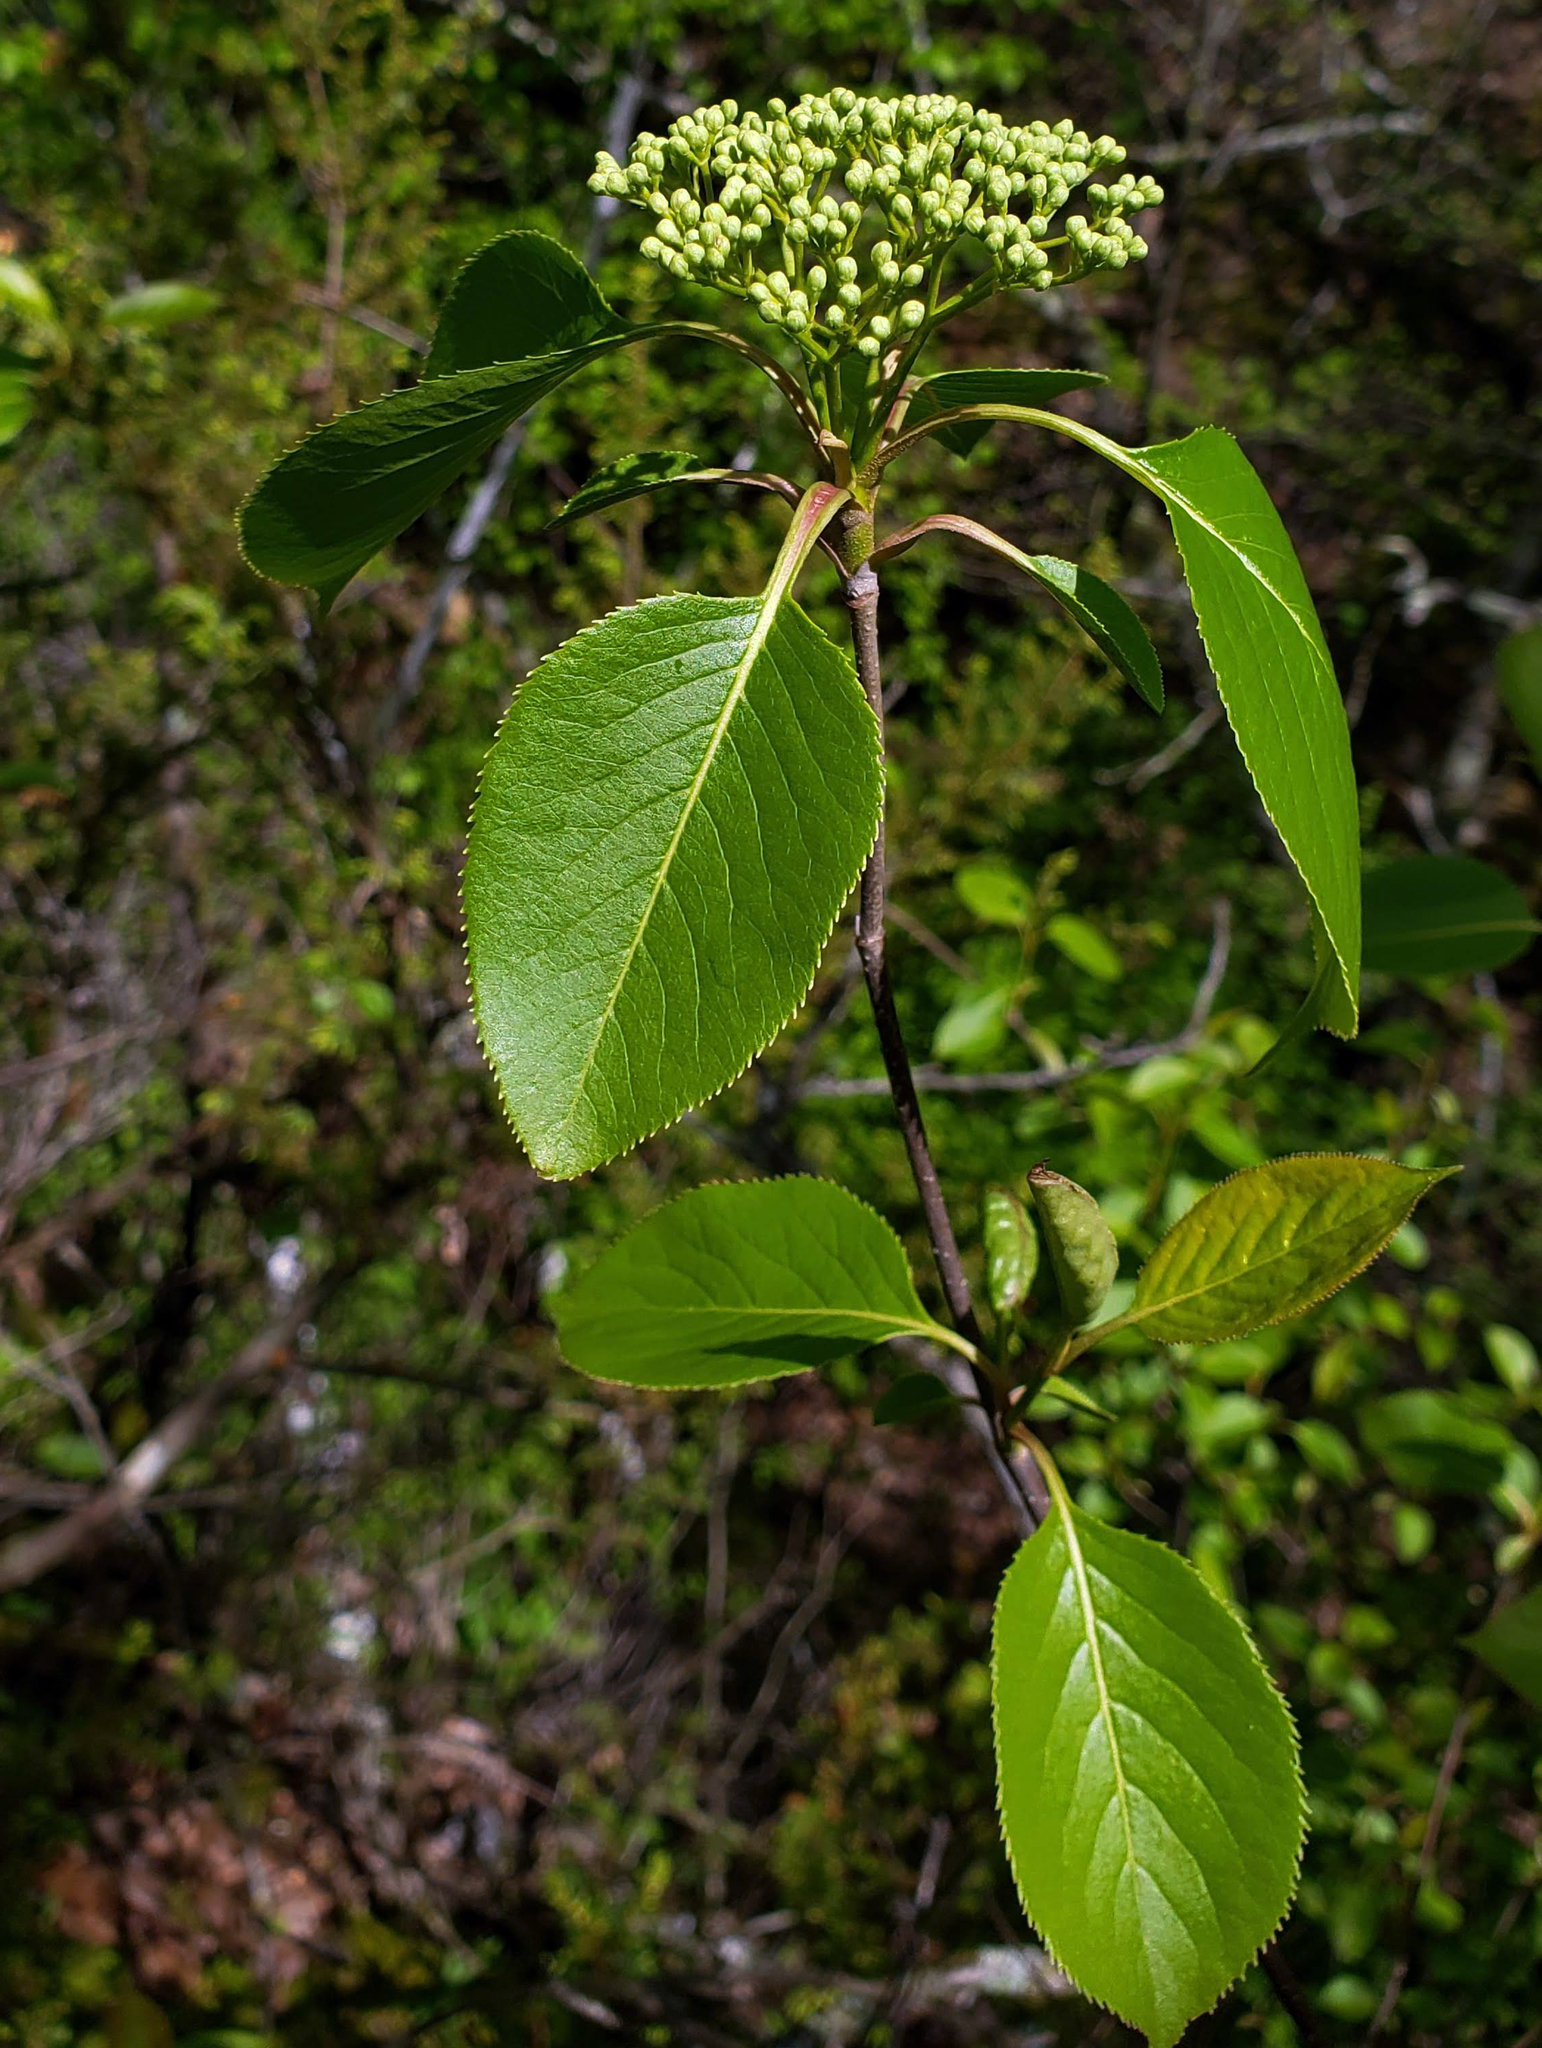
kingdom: Plantae
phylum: Tracheophyta
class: Magnoliopsida
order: Dipsacales
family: Viburnaceae
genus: Viburnum
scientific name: Viburnum lentago
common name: Black haw
